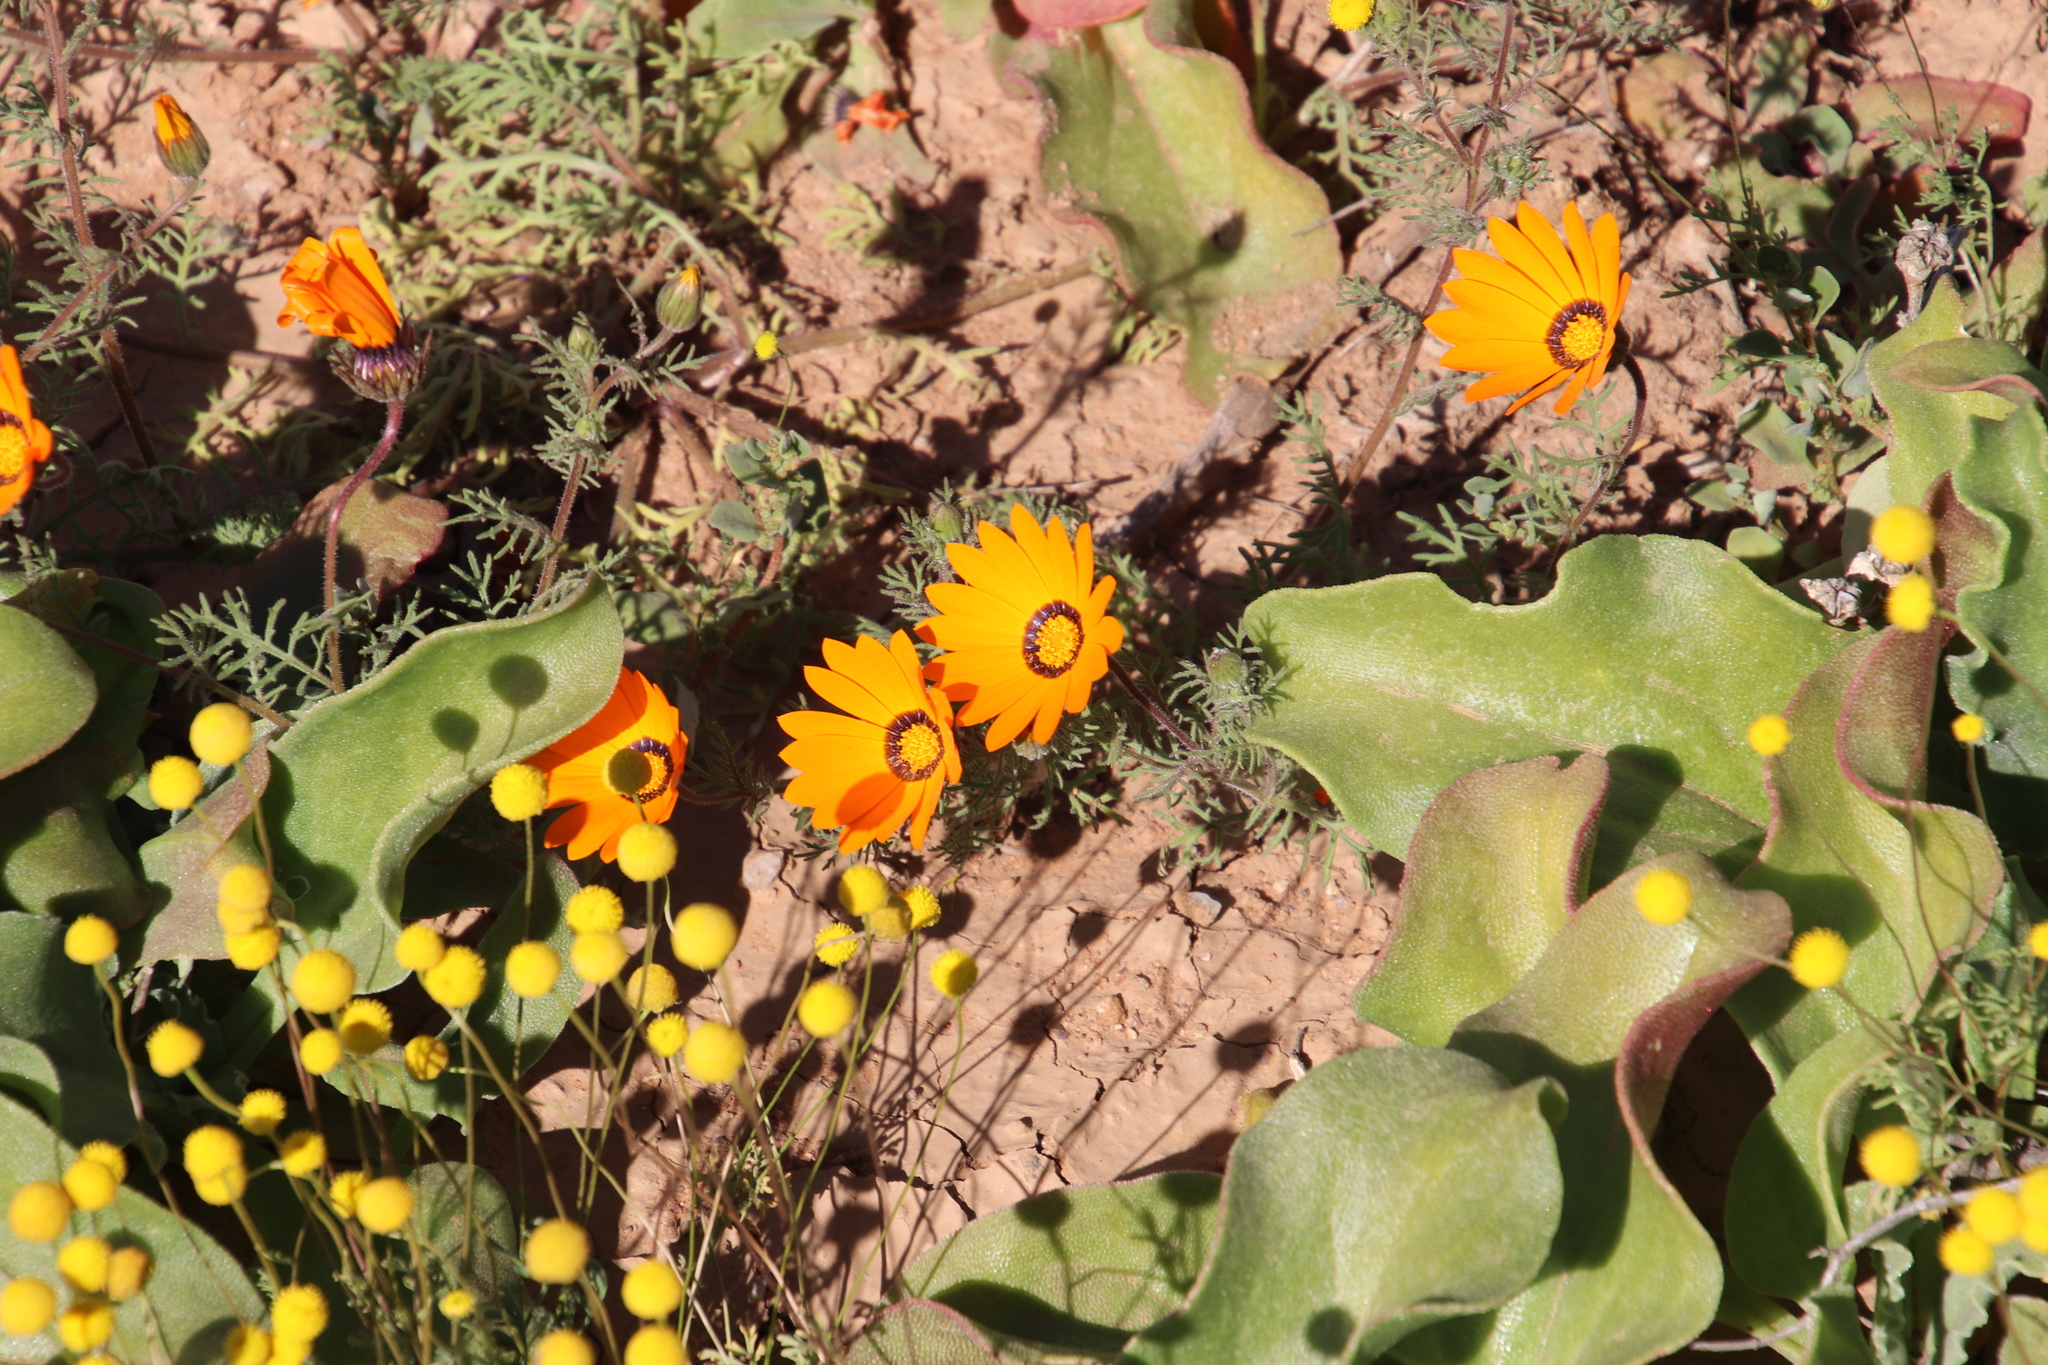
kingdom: Plantae
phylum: Tracheophyta
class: Magnoliopsida
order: Asterales
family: Asteraceae
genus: Dimorphotheca
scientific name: Dimorphotheca sinuata
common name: Glandular cape marigold
